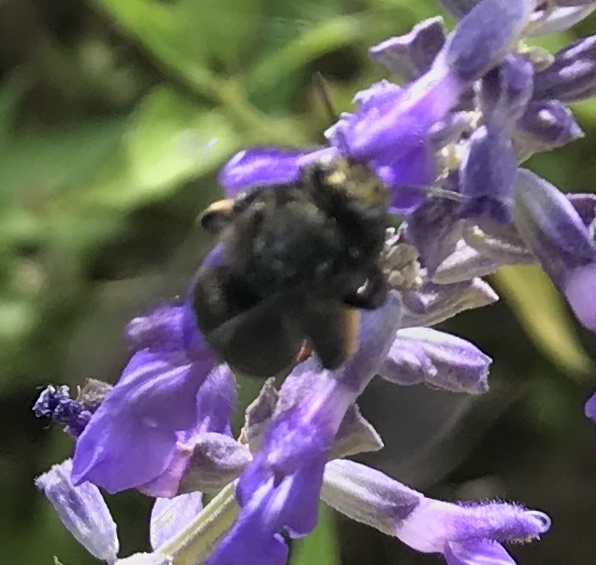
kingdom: Animalia
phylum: Arthropoda
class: Insecta
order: Hymenoptera
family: Apidae
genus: Melissodes
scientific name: Melissodes bimaculatus
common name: Two-spotted long-horned bee
